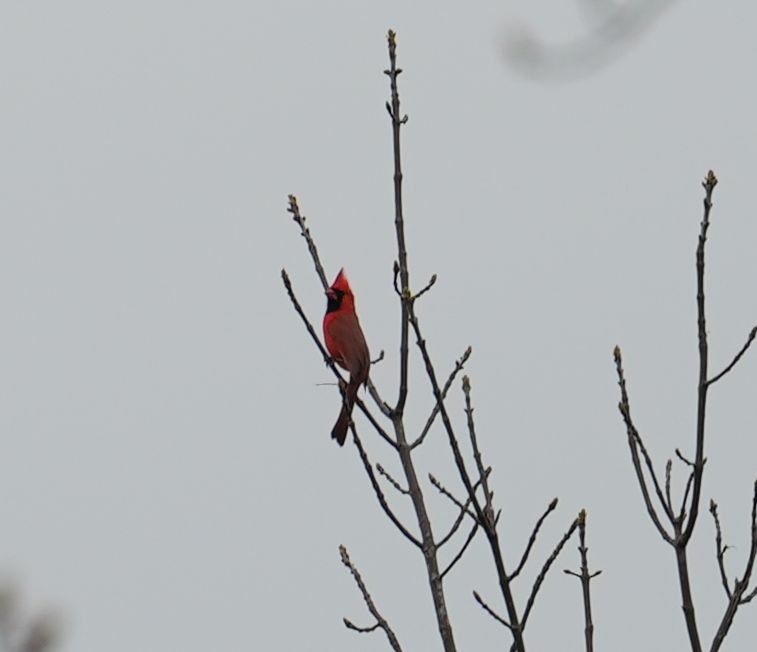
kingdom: Animalia
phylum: Chordata
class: Aves
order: Passeriformes
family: Cardinalidae
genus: Cardinalis
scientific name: Cardinalis cardinalis
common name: Northern cardinal
